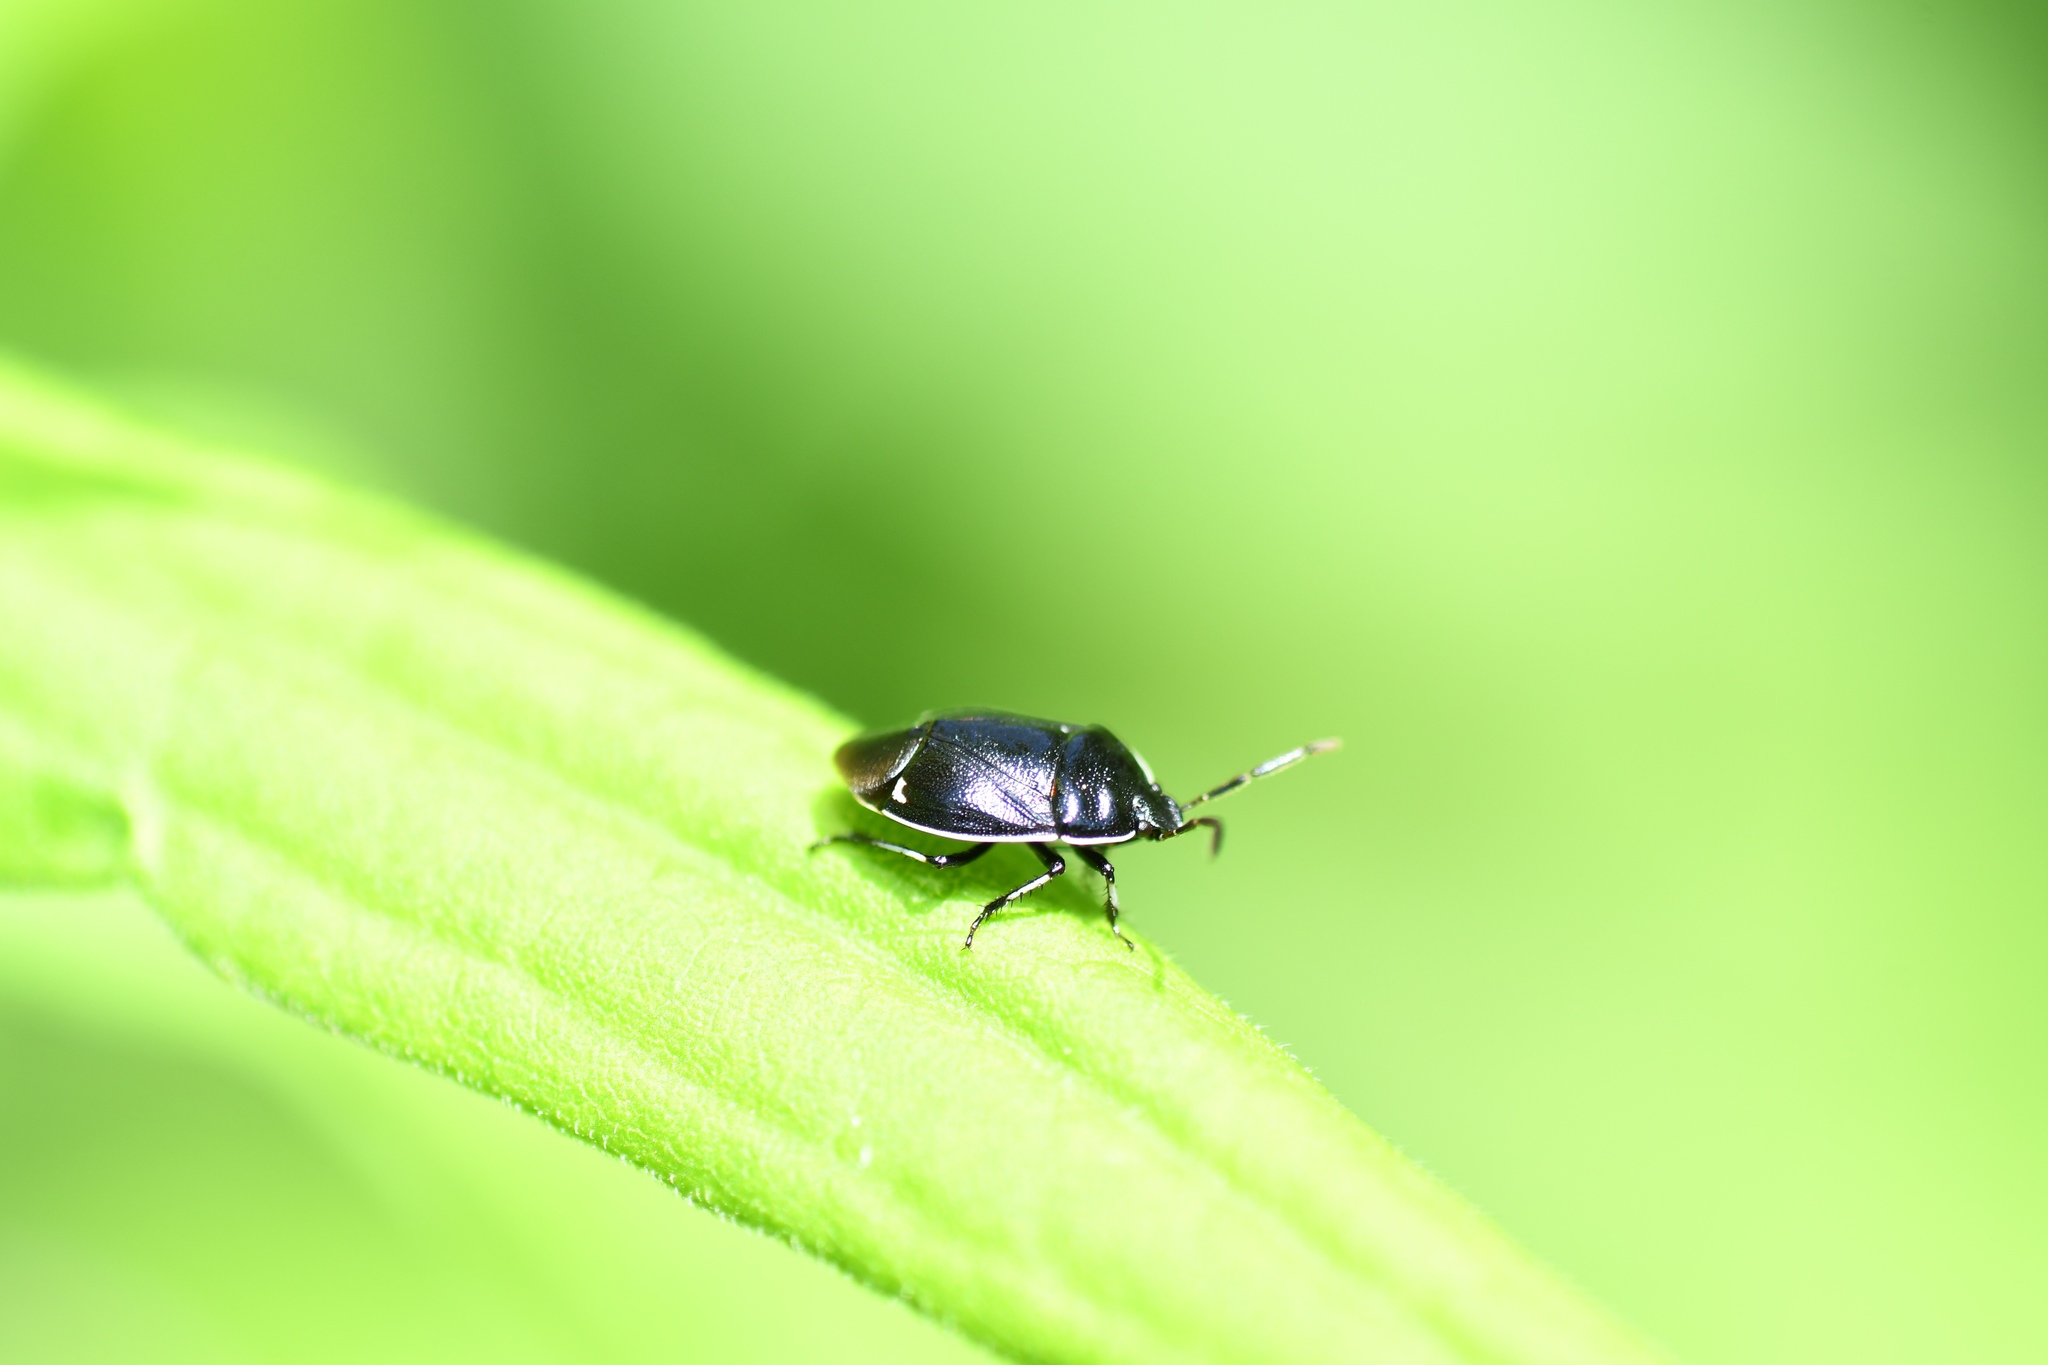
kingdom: Animalia
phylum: Arthropoda
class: Insecta
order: Hemiptera
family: Cydnidae
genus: Sehirus
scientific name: Sehirus cinctus
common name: White-margined burrower bug
